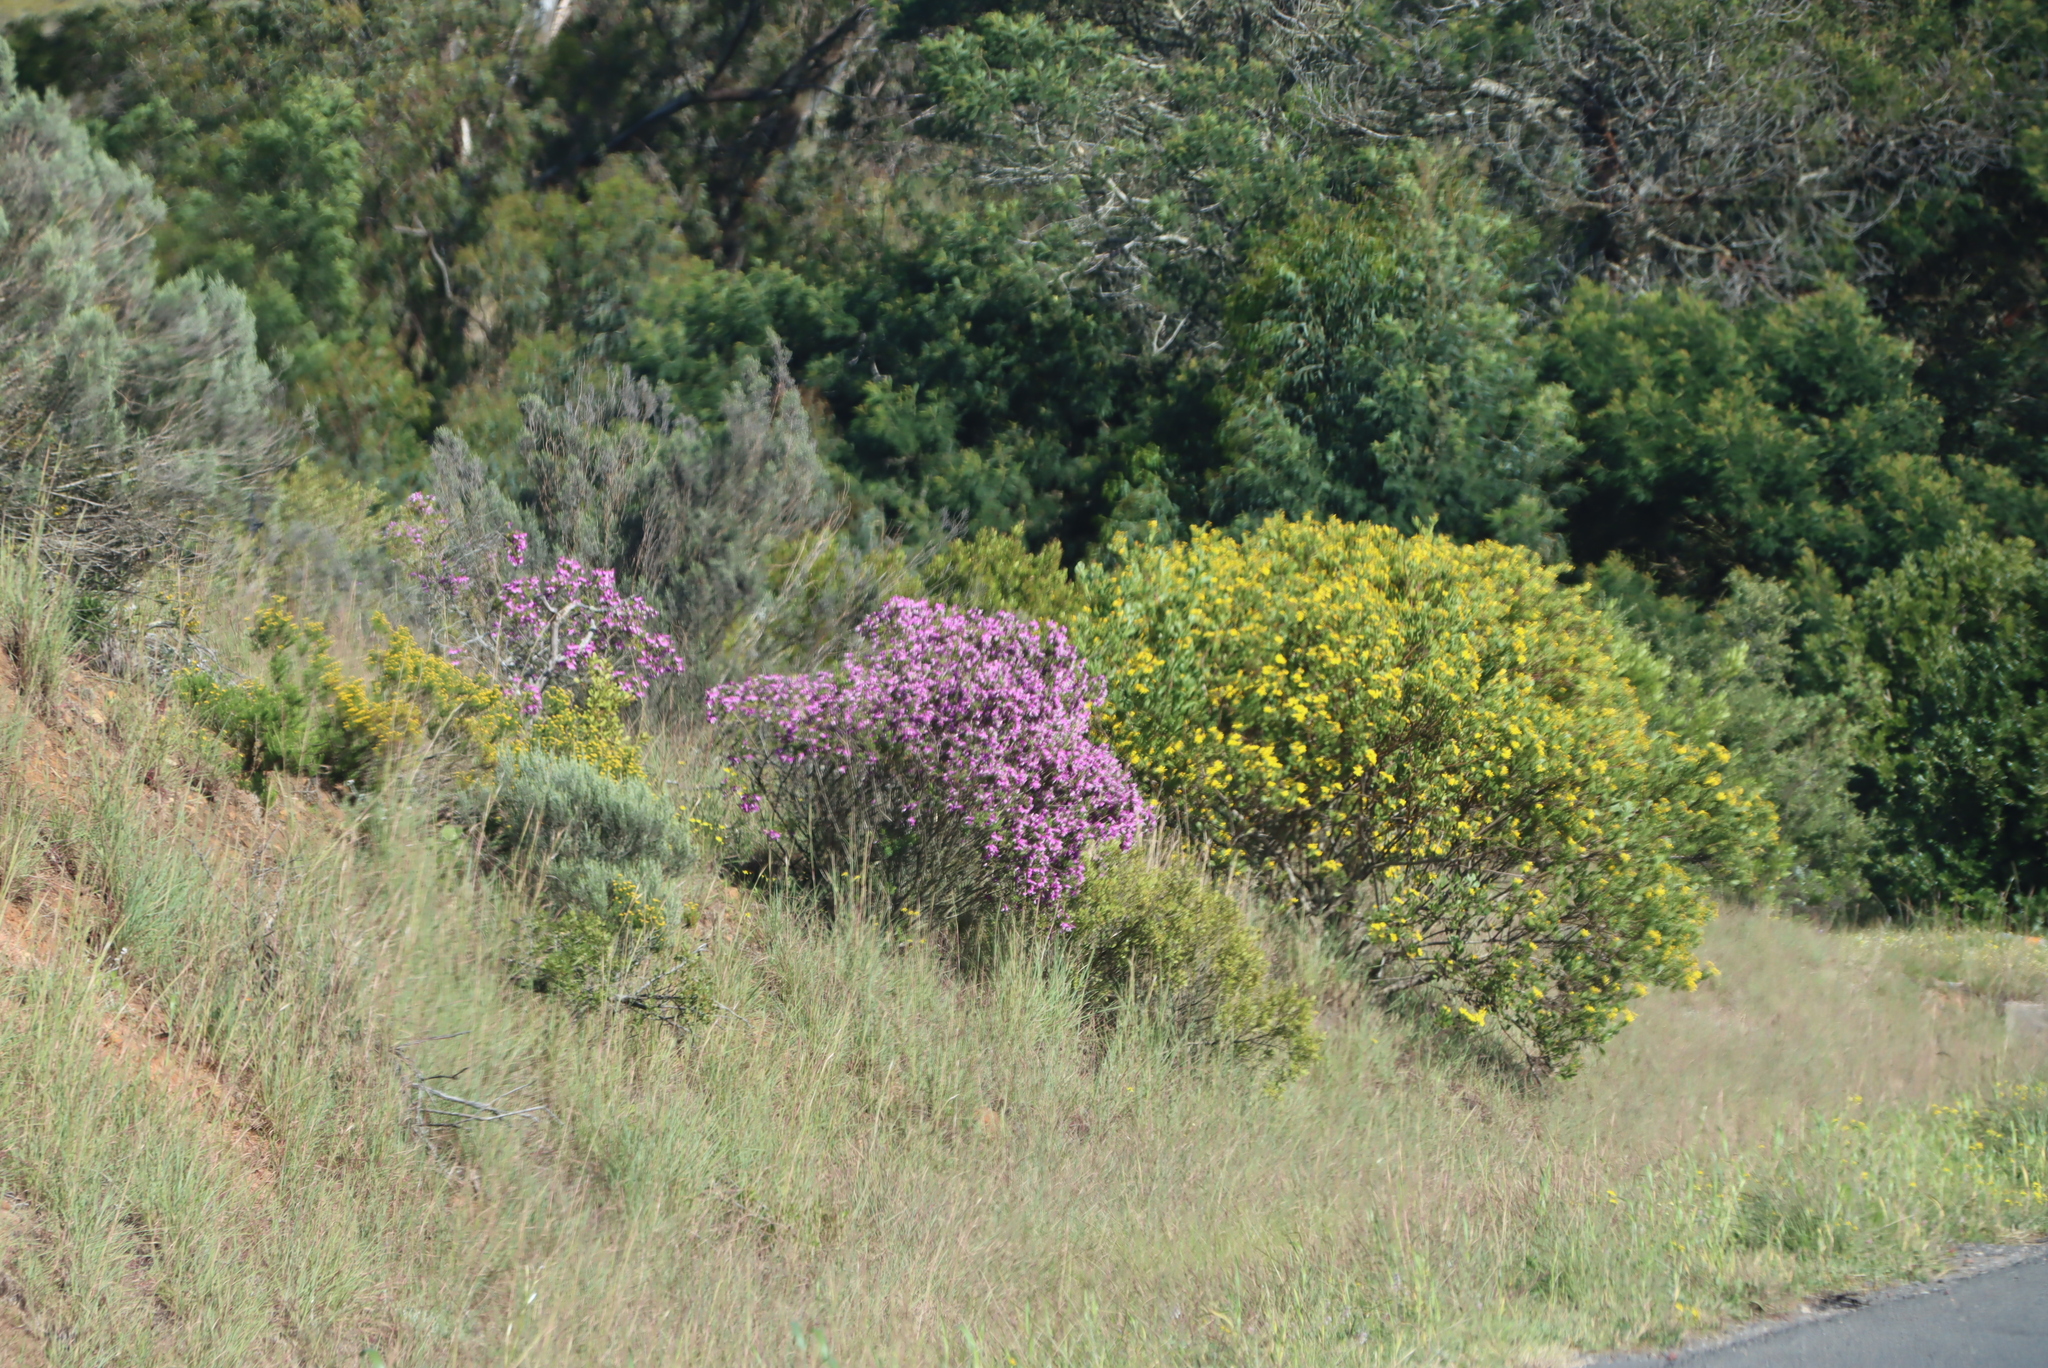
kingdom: Plantae
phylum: Tracheophyta
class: Magnoliopsida
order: Asterales
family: Asteraceae
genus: Osteospermum
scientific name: Osteospermum moniliferum
